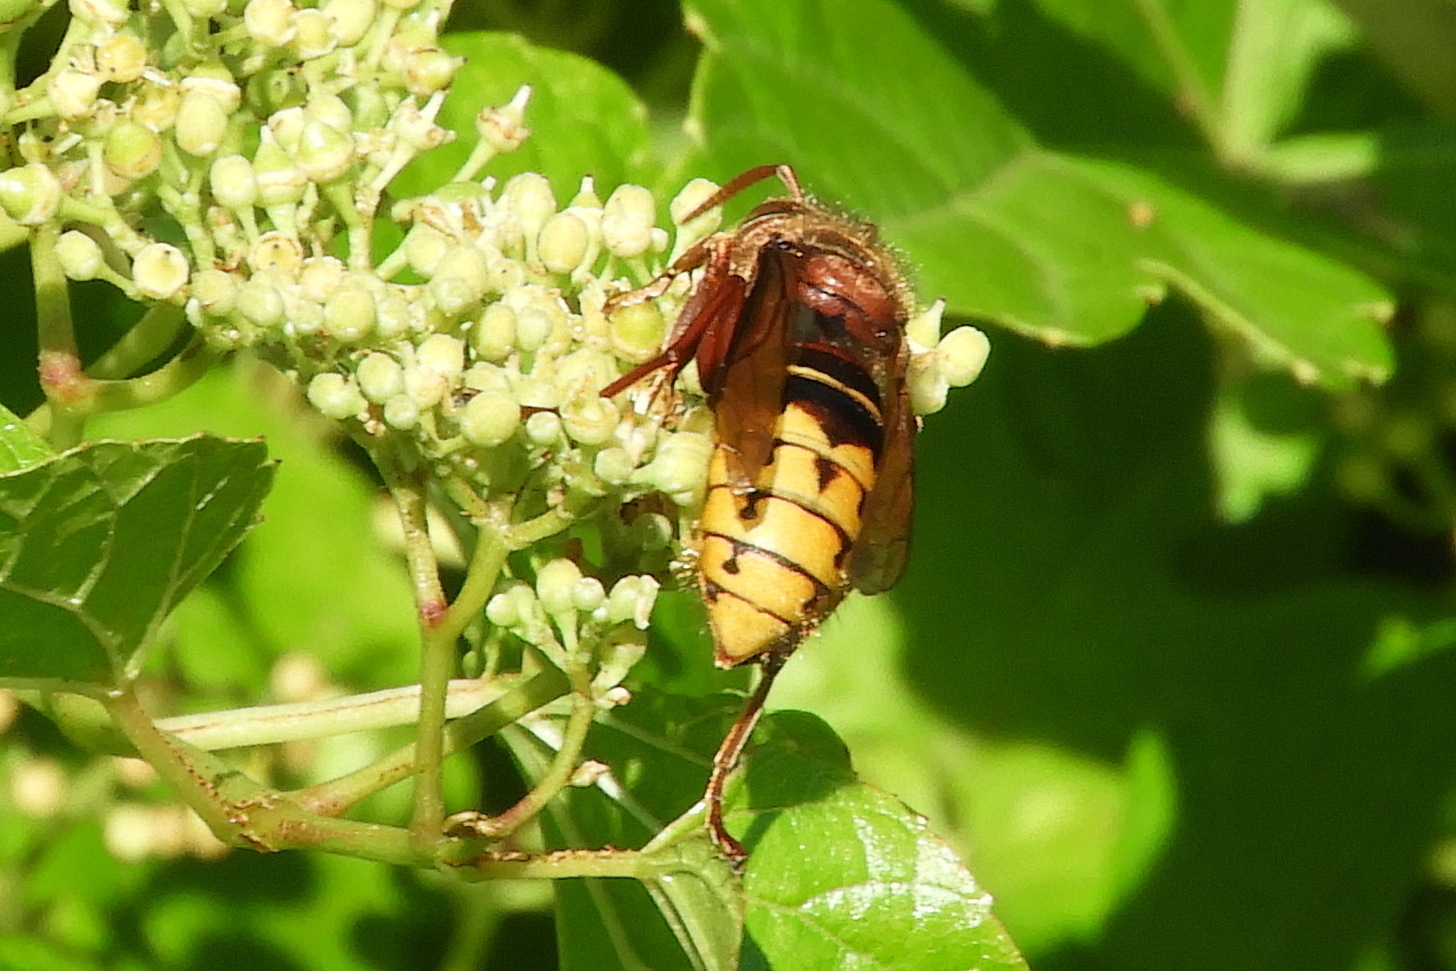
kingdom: Animalia
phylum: Arthropoda
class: Insecta
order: Hymenoptera
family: Vespidae
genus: Vespa
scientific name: Vespa crabro
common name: Hornet
